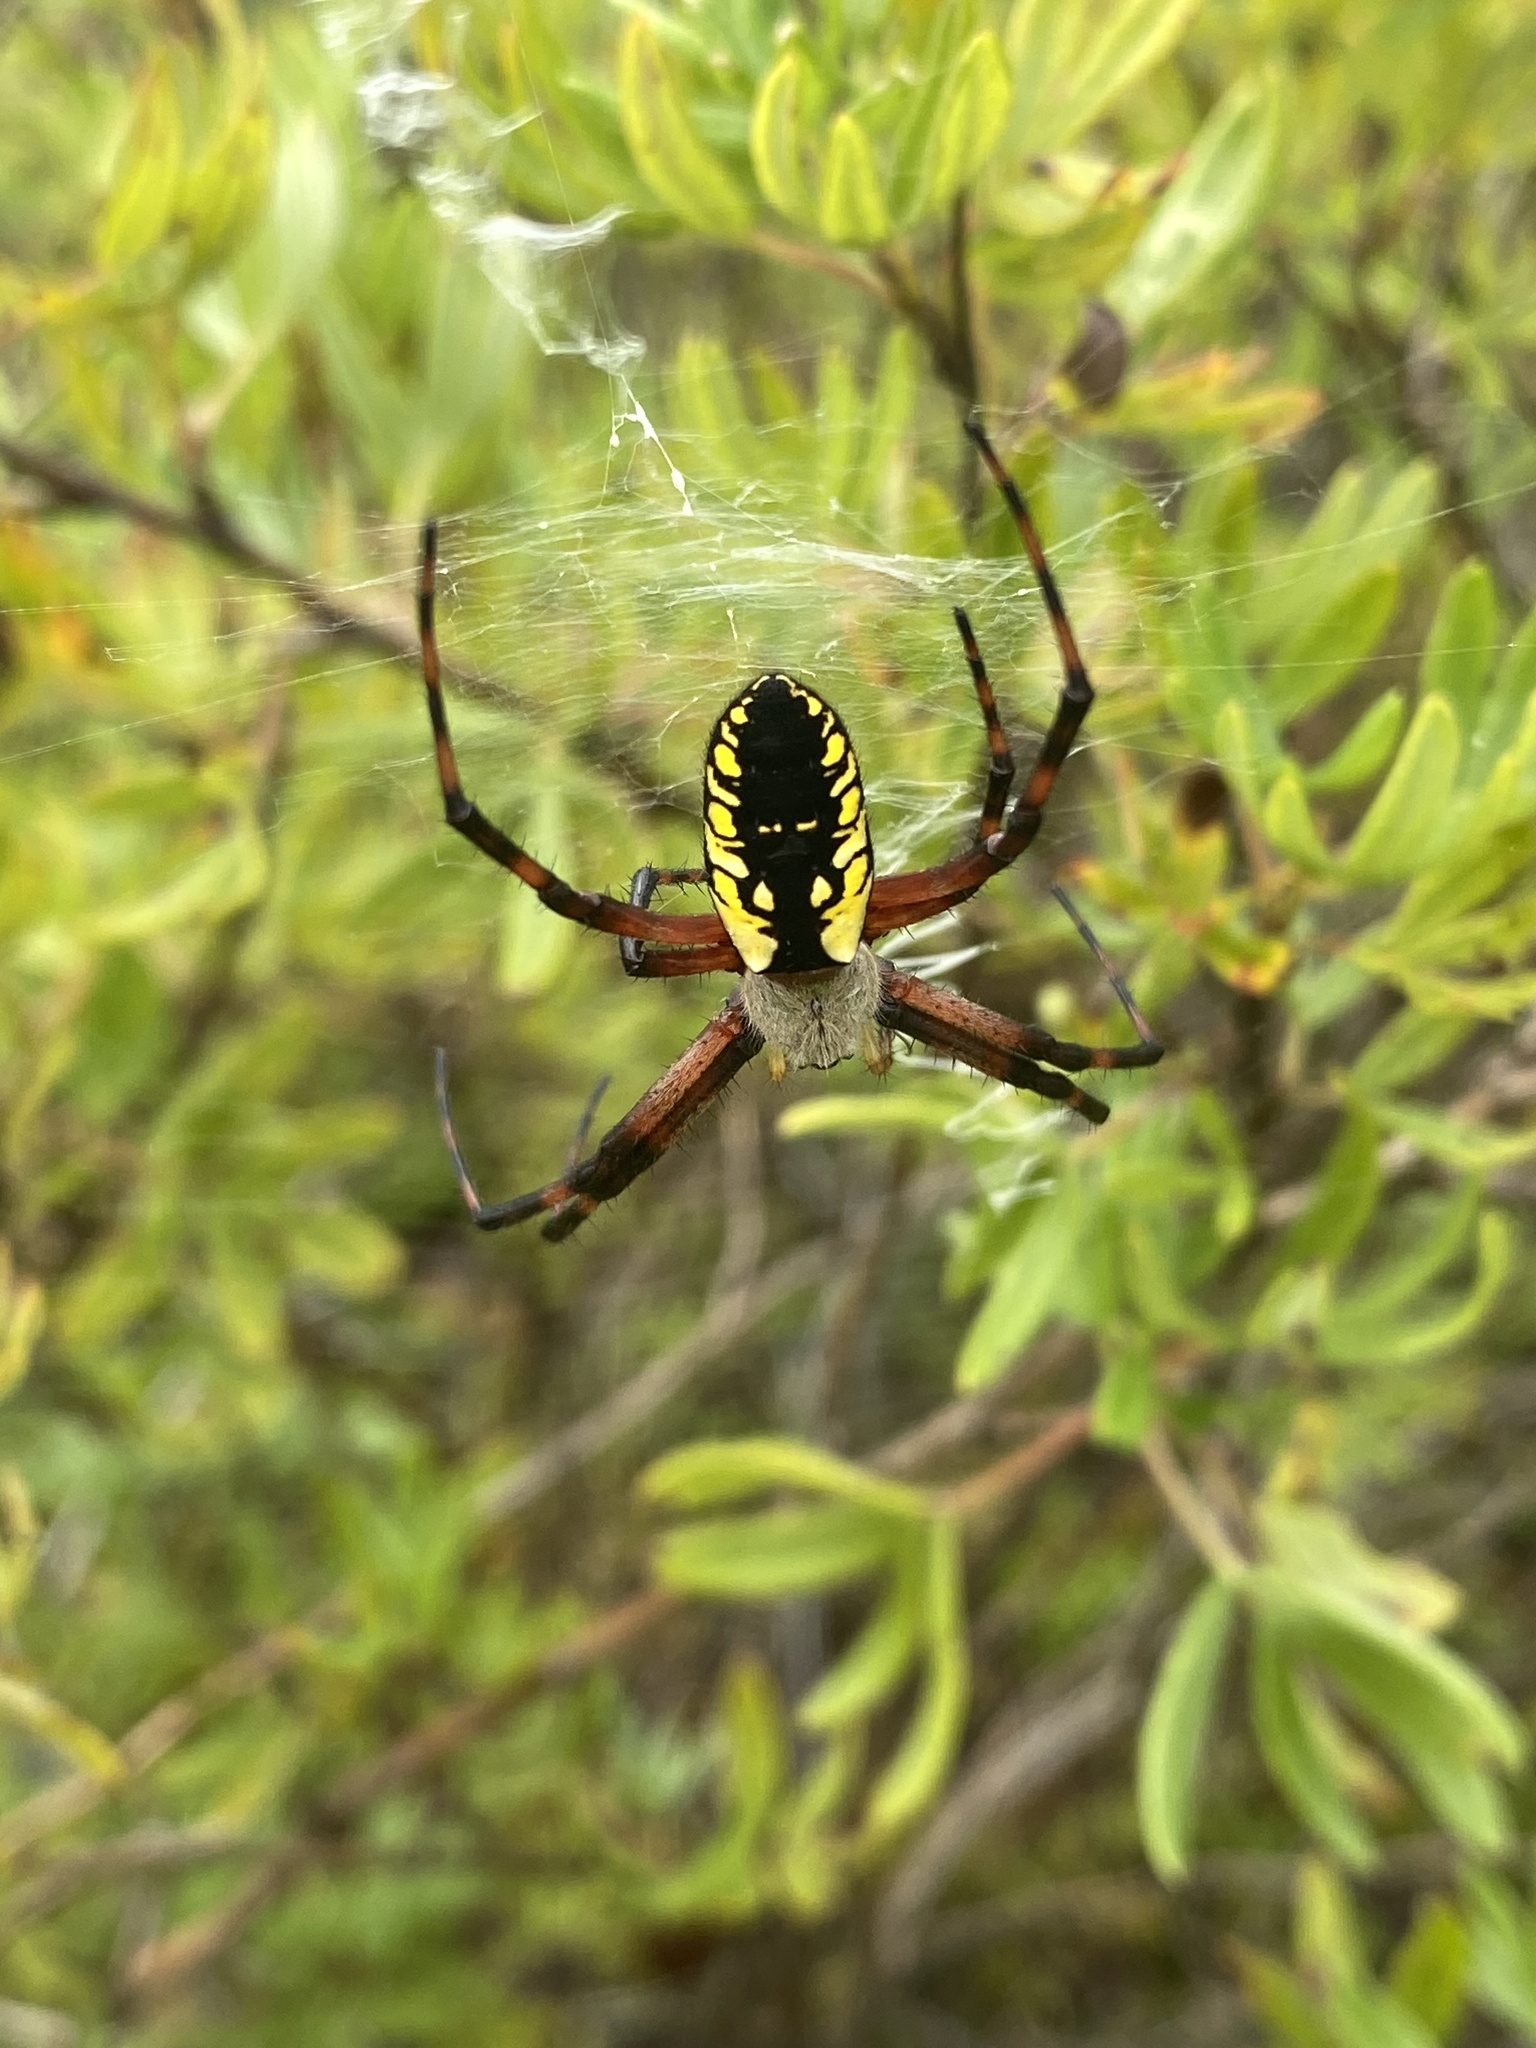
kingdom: Animalia
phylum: Arthropoda
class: Arachnida
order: Araneae
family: Araneidae
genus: Argiope
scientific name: Argiope aurantia
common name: Orb weavers
